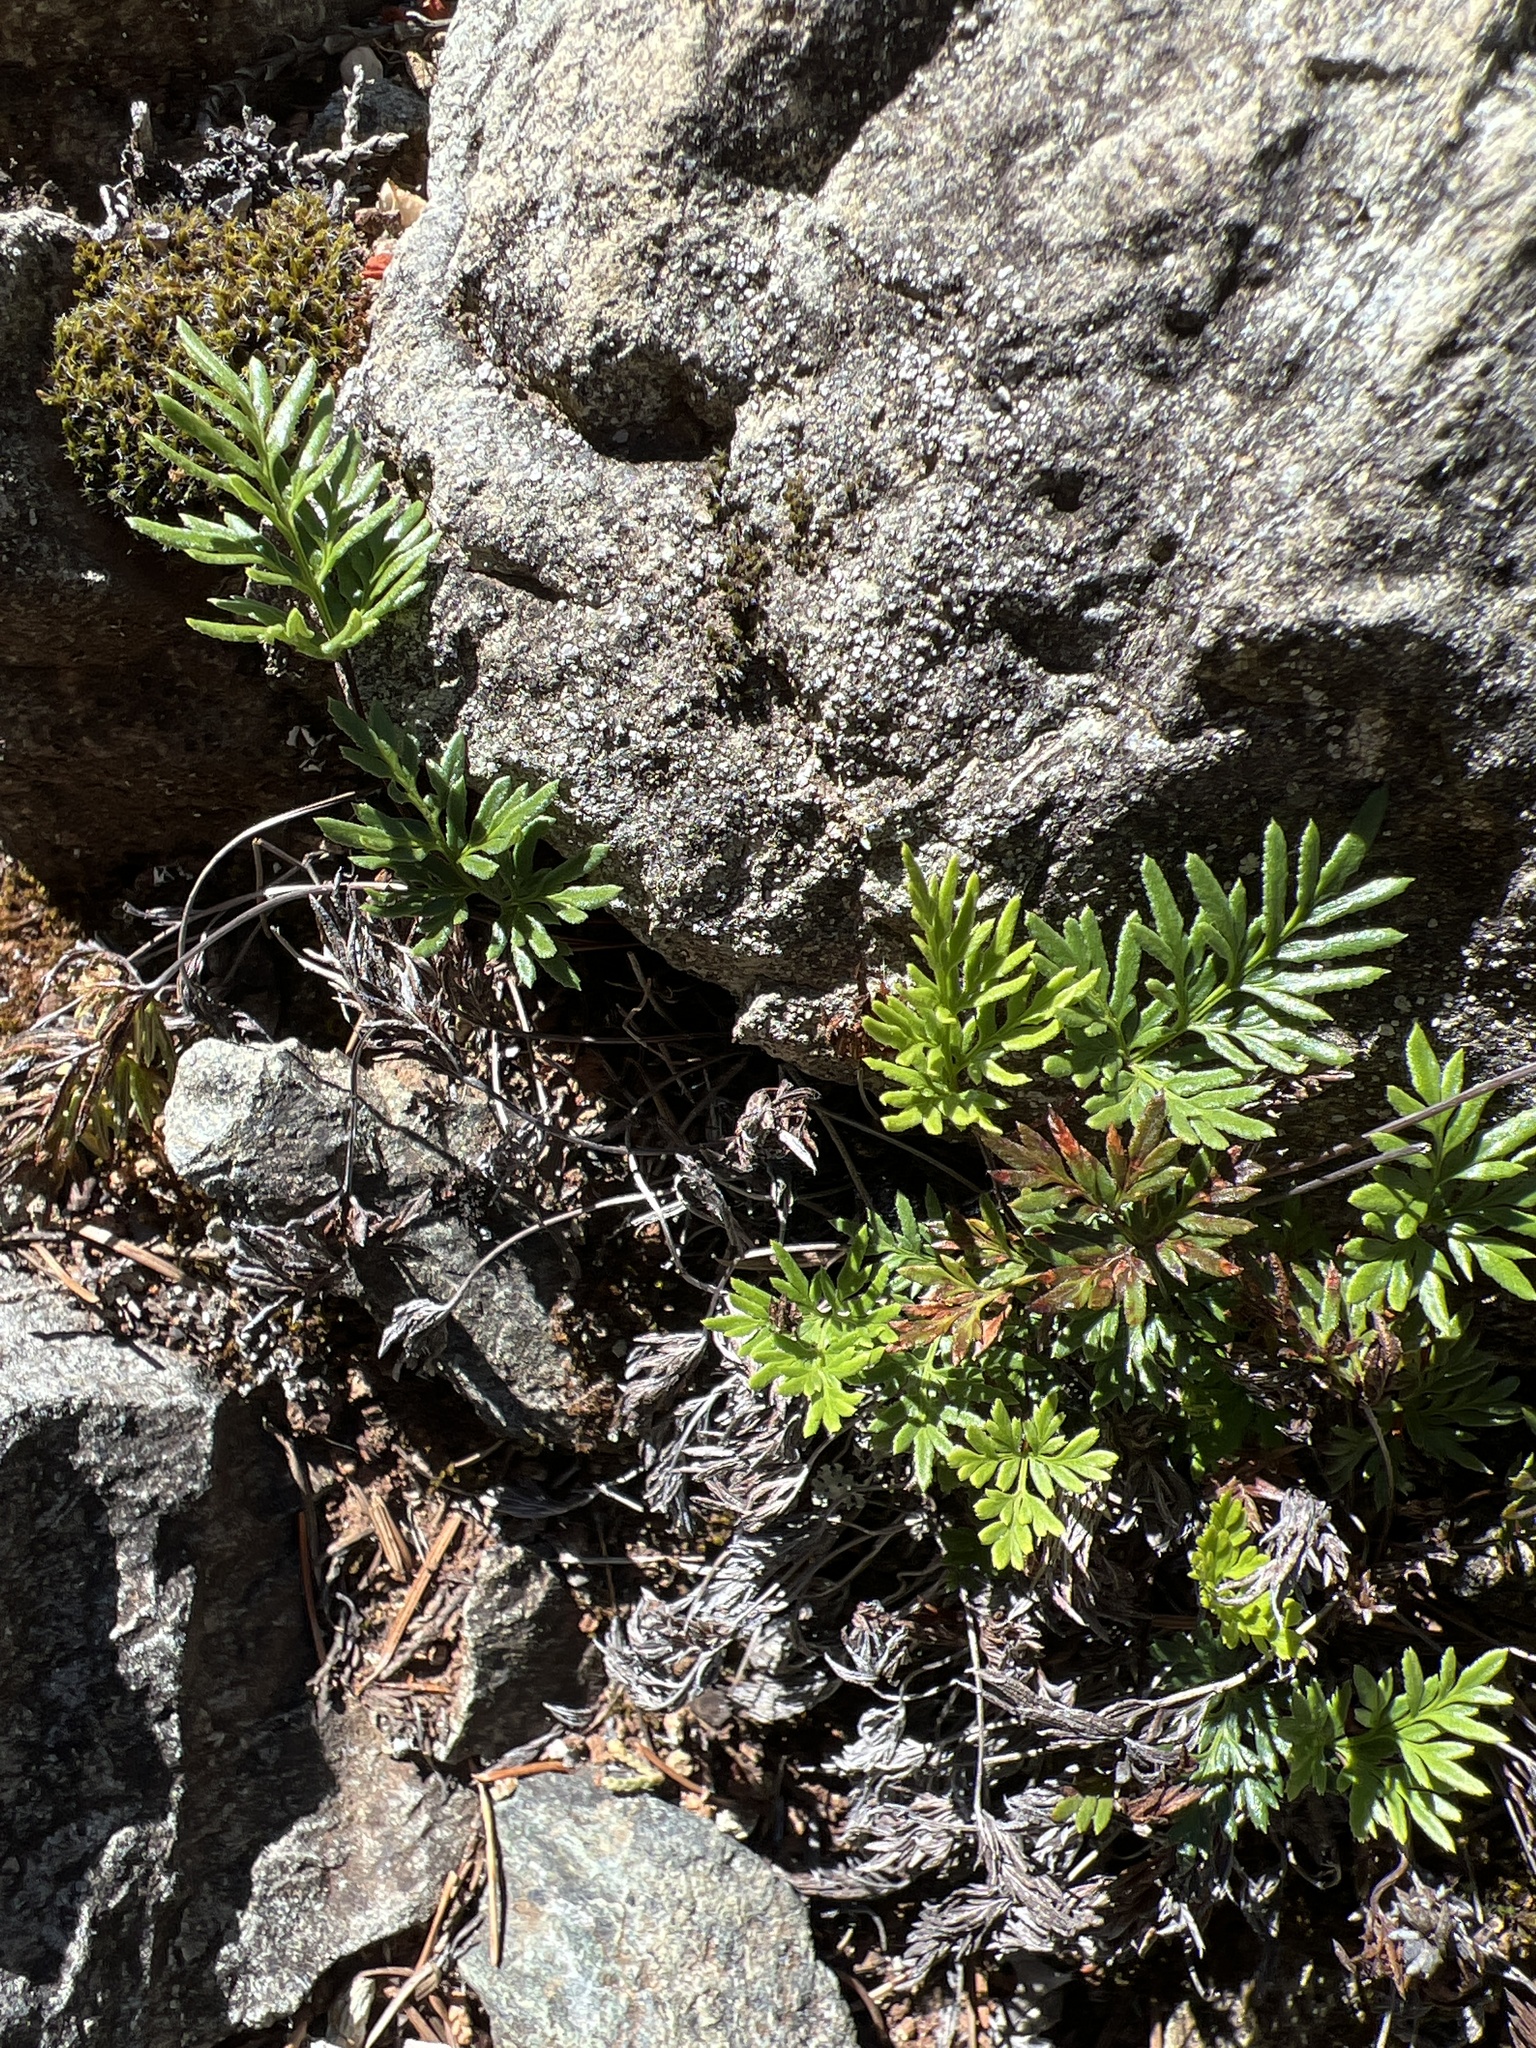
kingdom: Plantae
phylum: Tracheophyta
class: Polypodiopsida
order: Polypodiales
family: Pteridaceae
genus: Aspidotis
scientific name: Aspidotis densa
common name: Indian's dream
